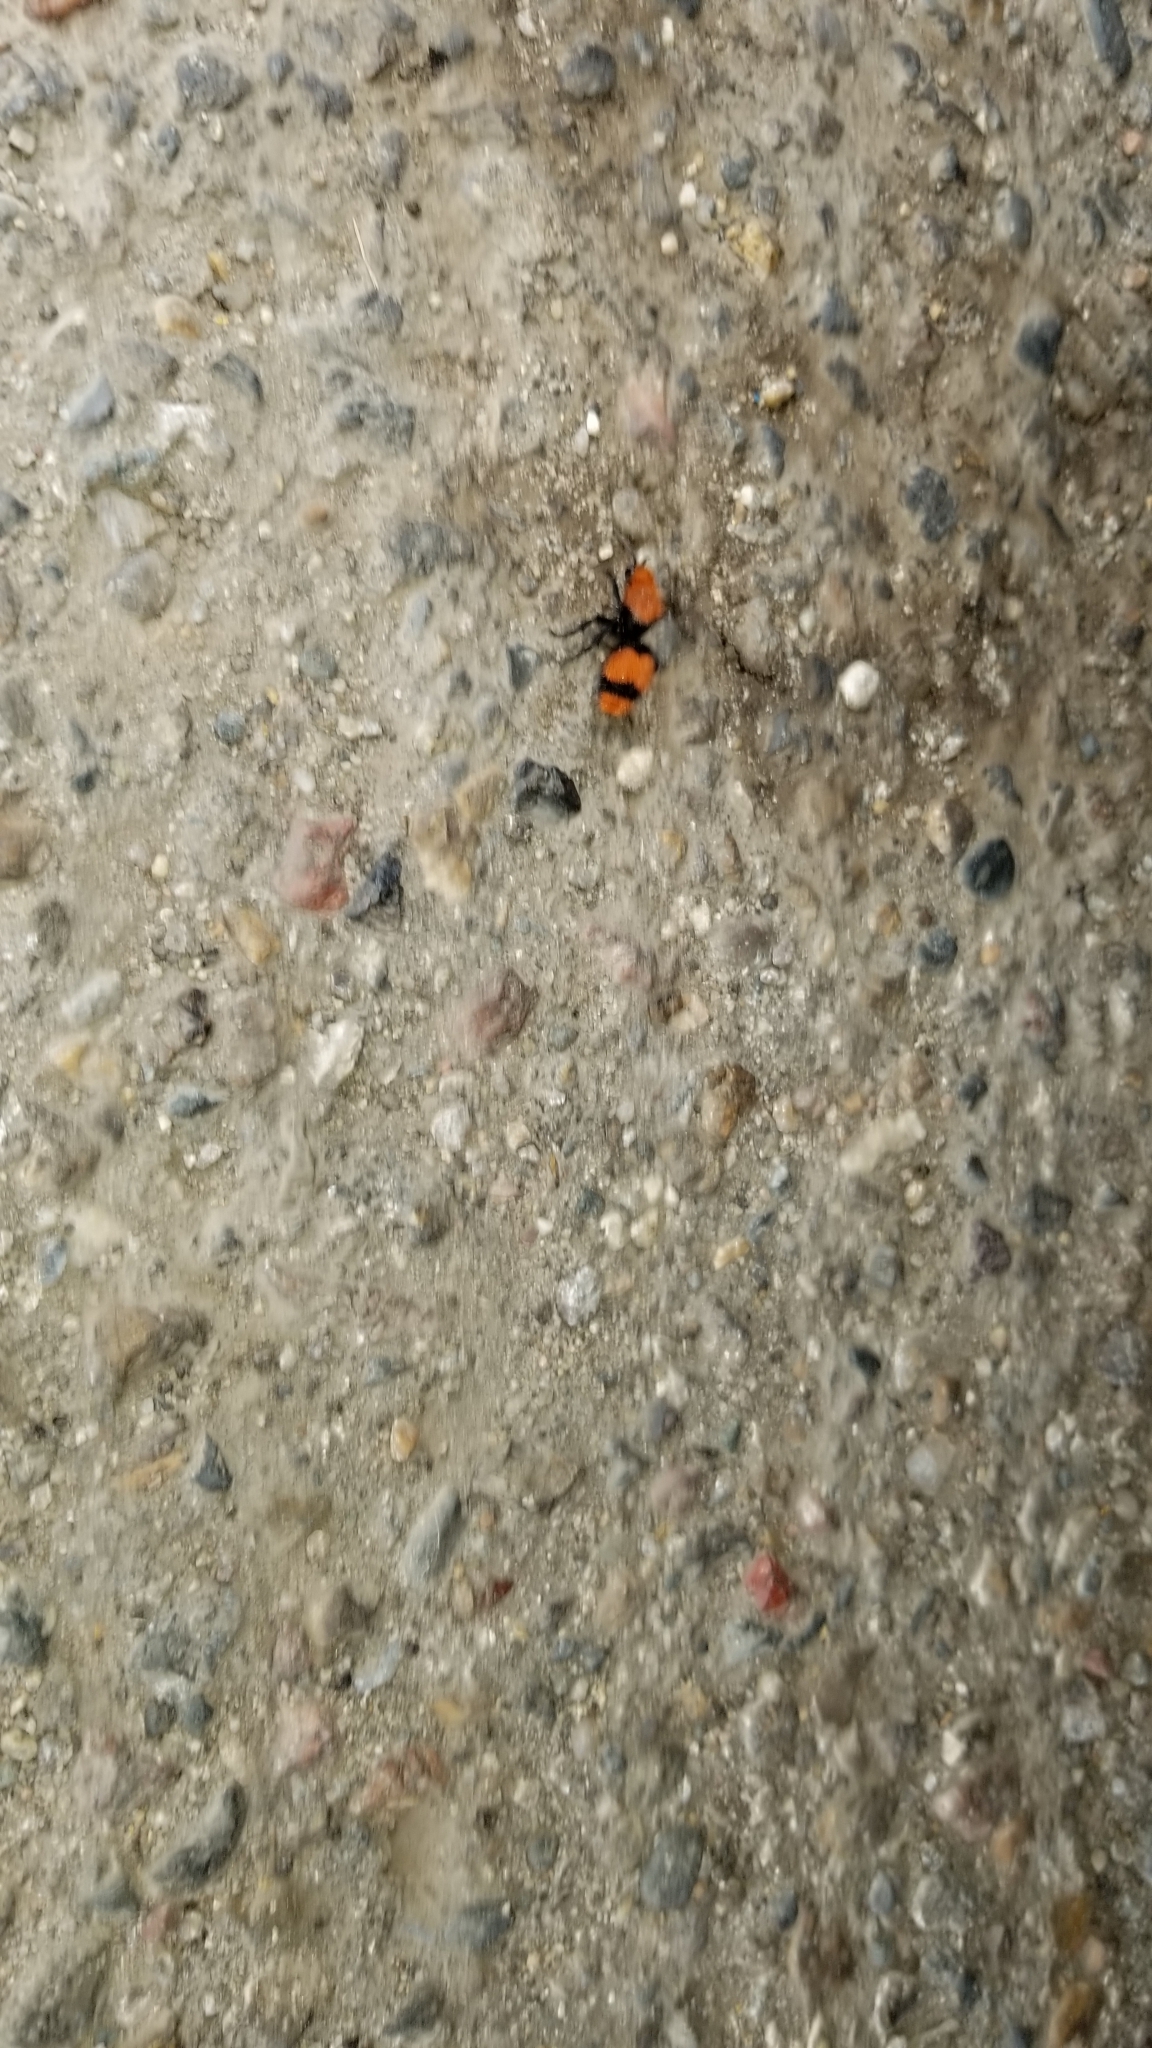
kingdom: Animalia
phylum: Arthropoda
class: Insecta
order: Hymenoptera
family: Mutillidae
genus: Dasymutilla
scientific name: Dasymutilla occidentalis
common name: Common eastern velvet ant
